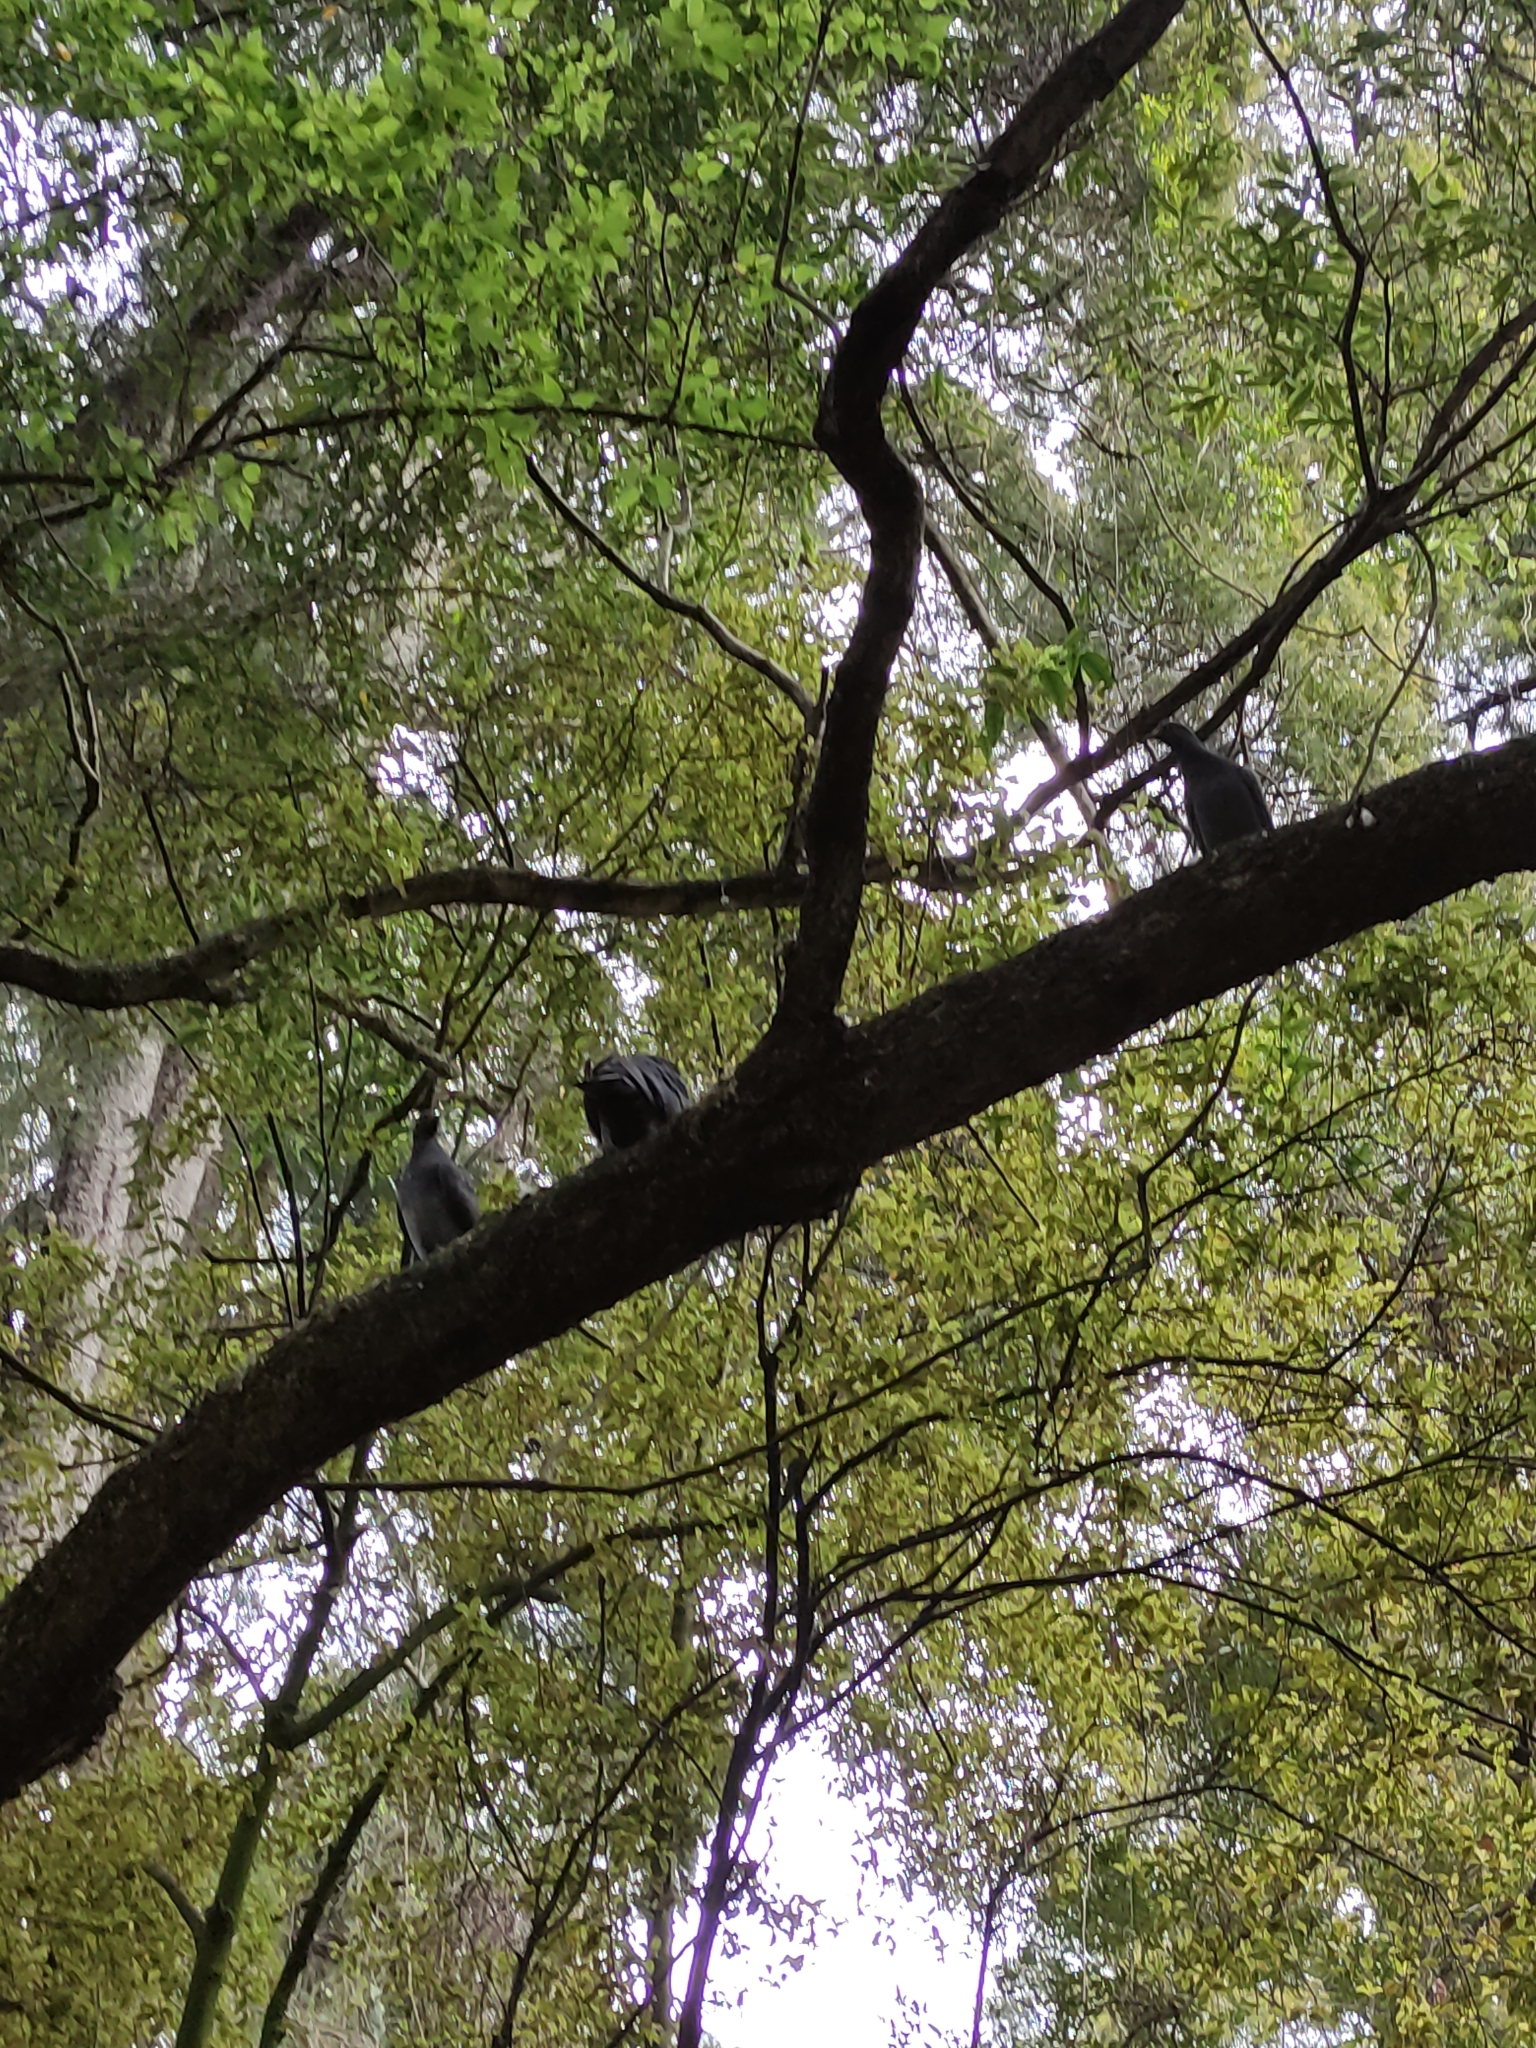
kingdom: Animalia
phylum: Chordata
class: Aves
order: Columbiformes
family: Columbidae
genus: Columba
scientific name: Columba livia
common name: Rock pigeon
